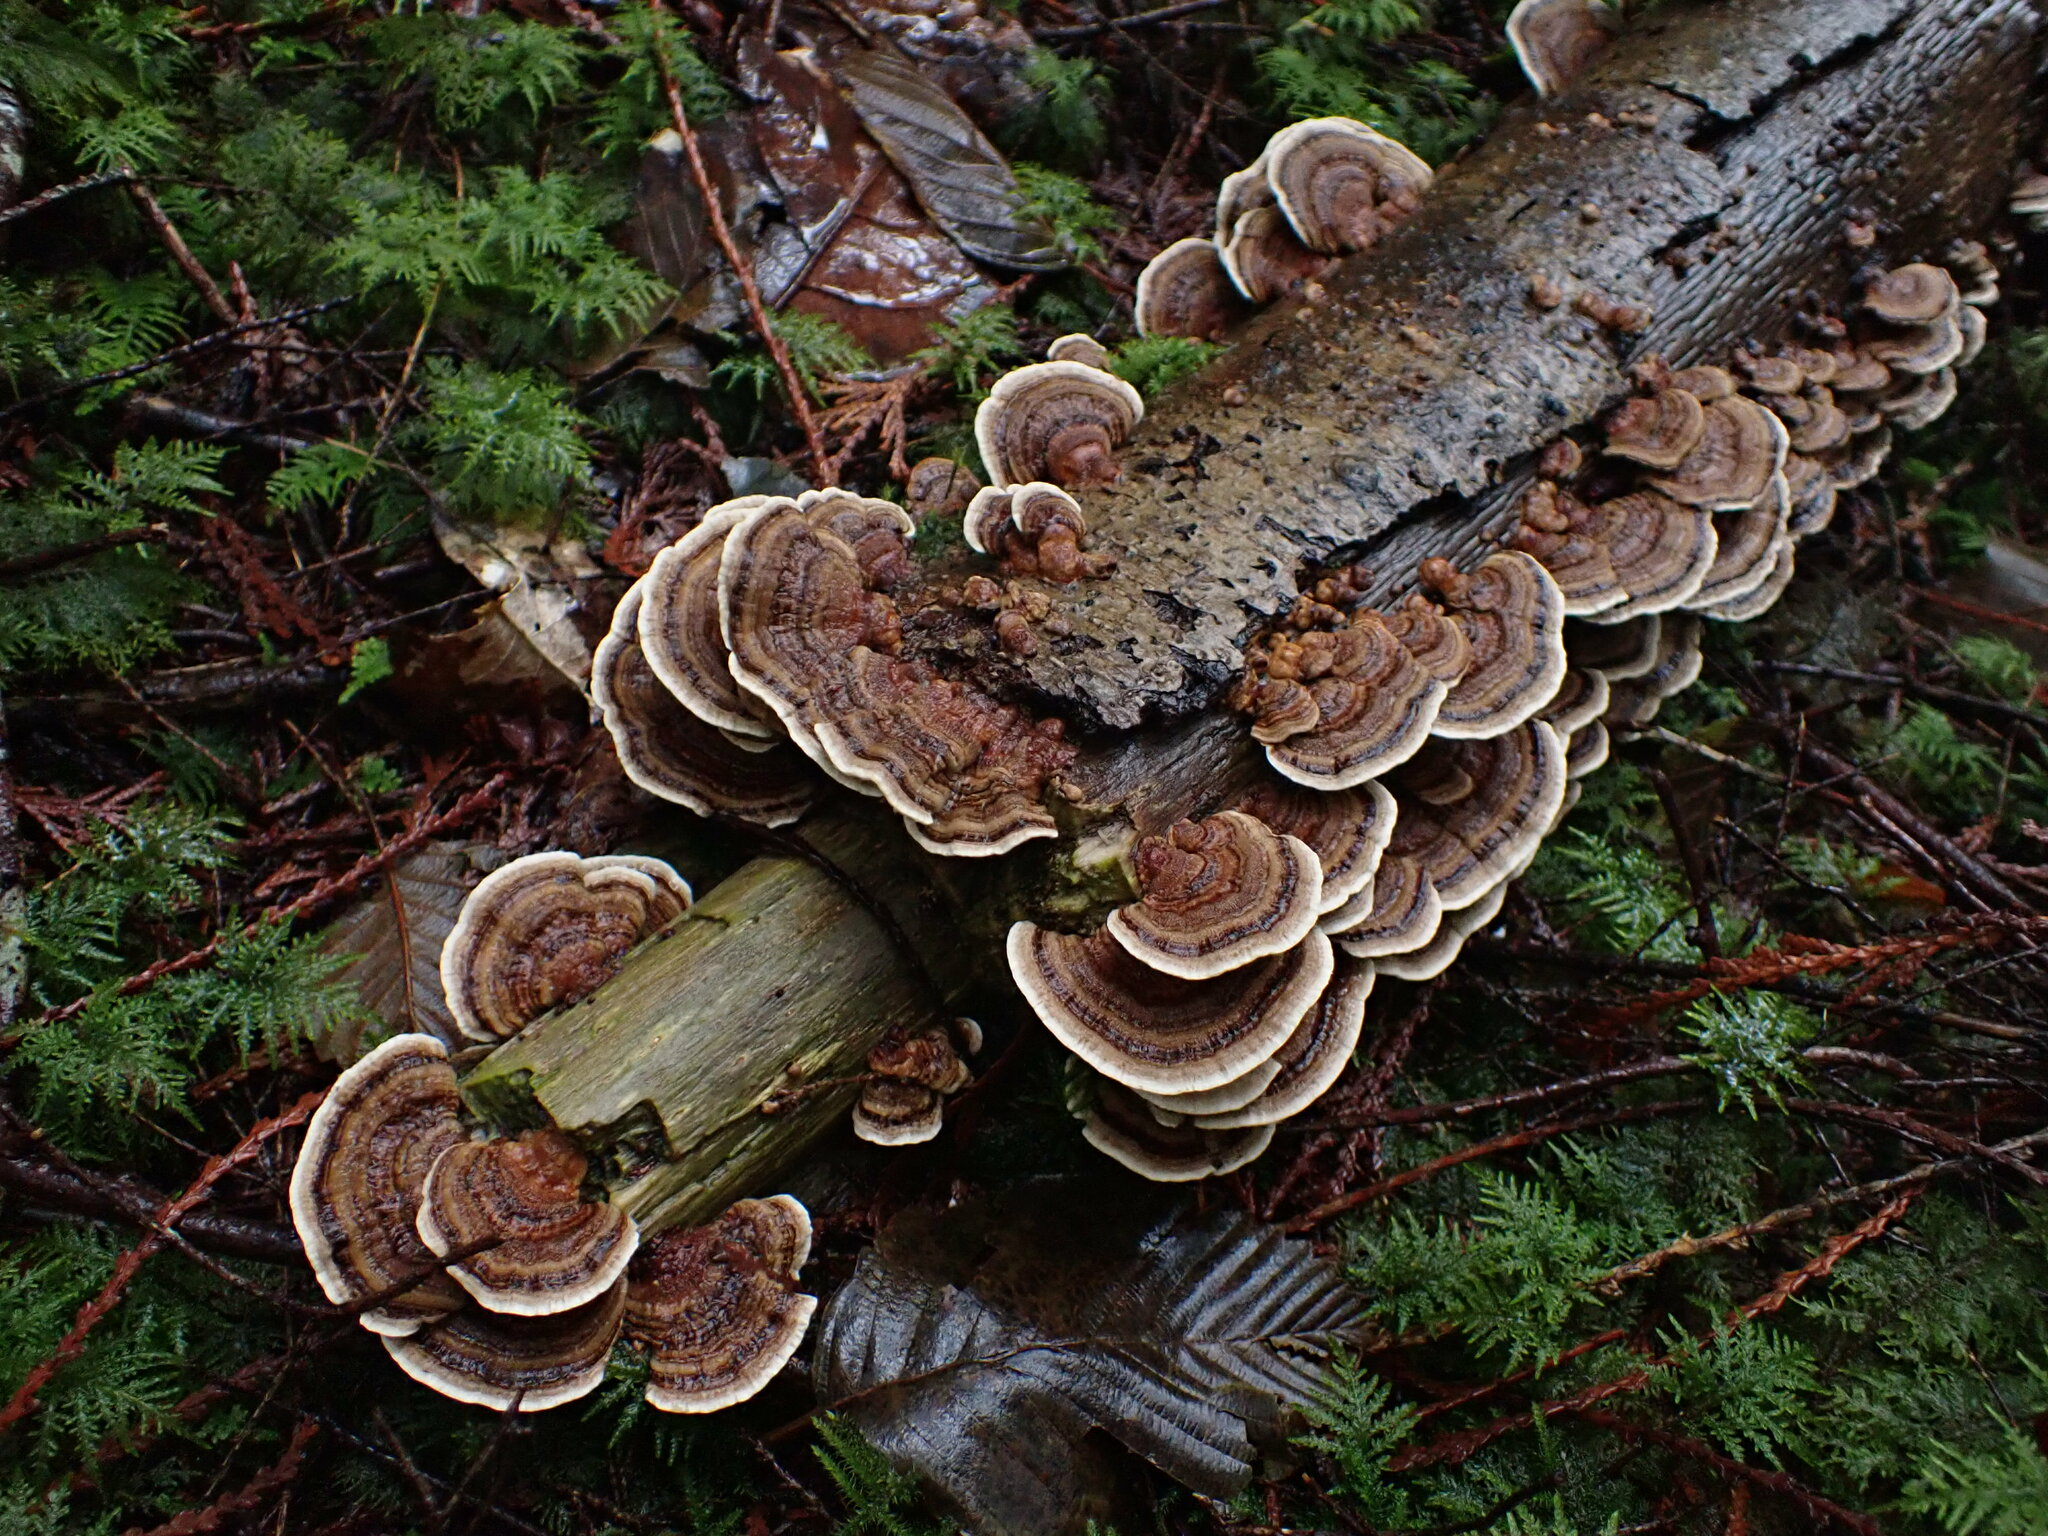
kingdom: Fungi
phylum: Basidiomycota
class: Agaricomycetes
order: Polyporales
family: Polyporaceae
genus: Trametes
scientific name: Trametes versicolor
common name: Turkeytail
